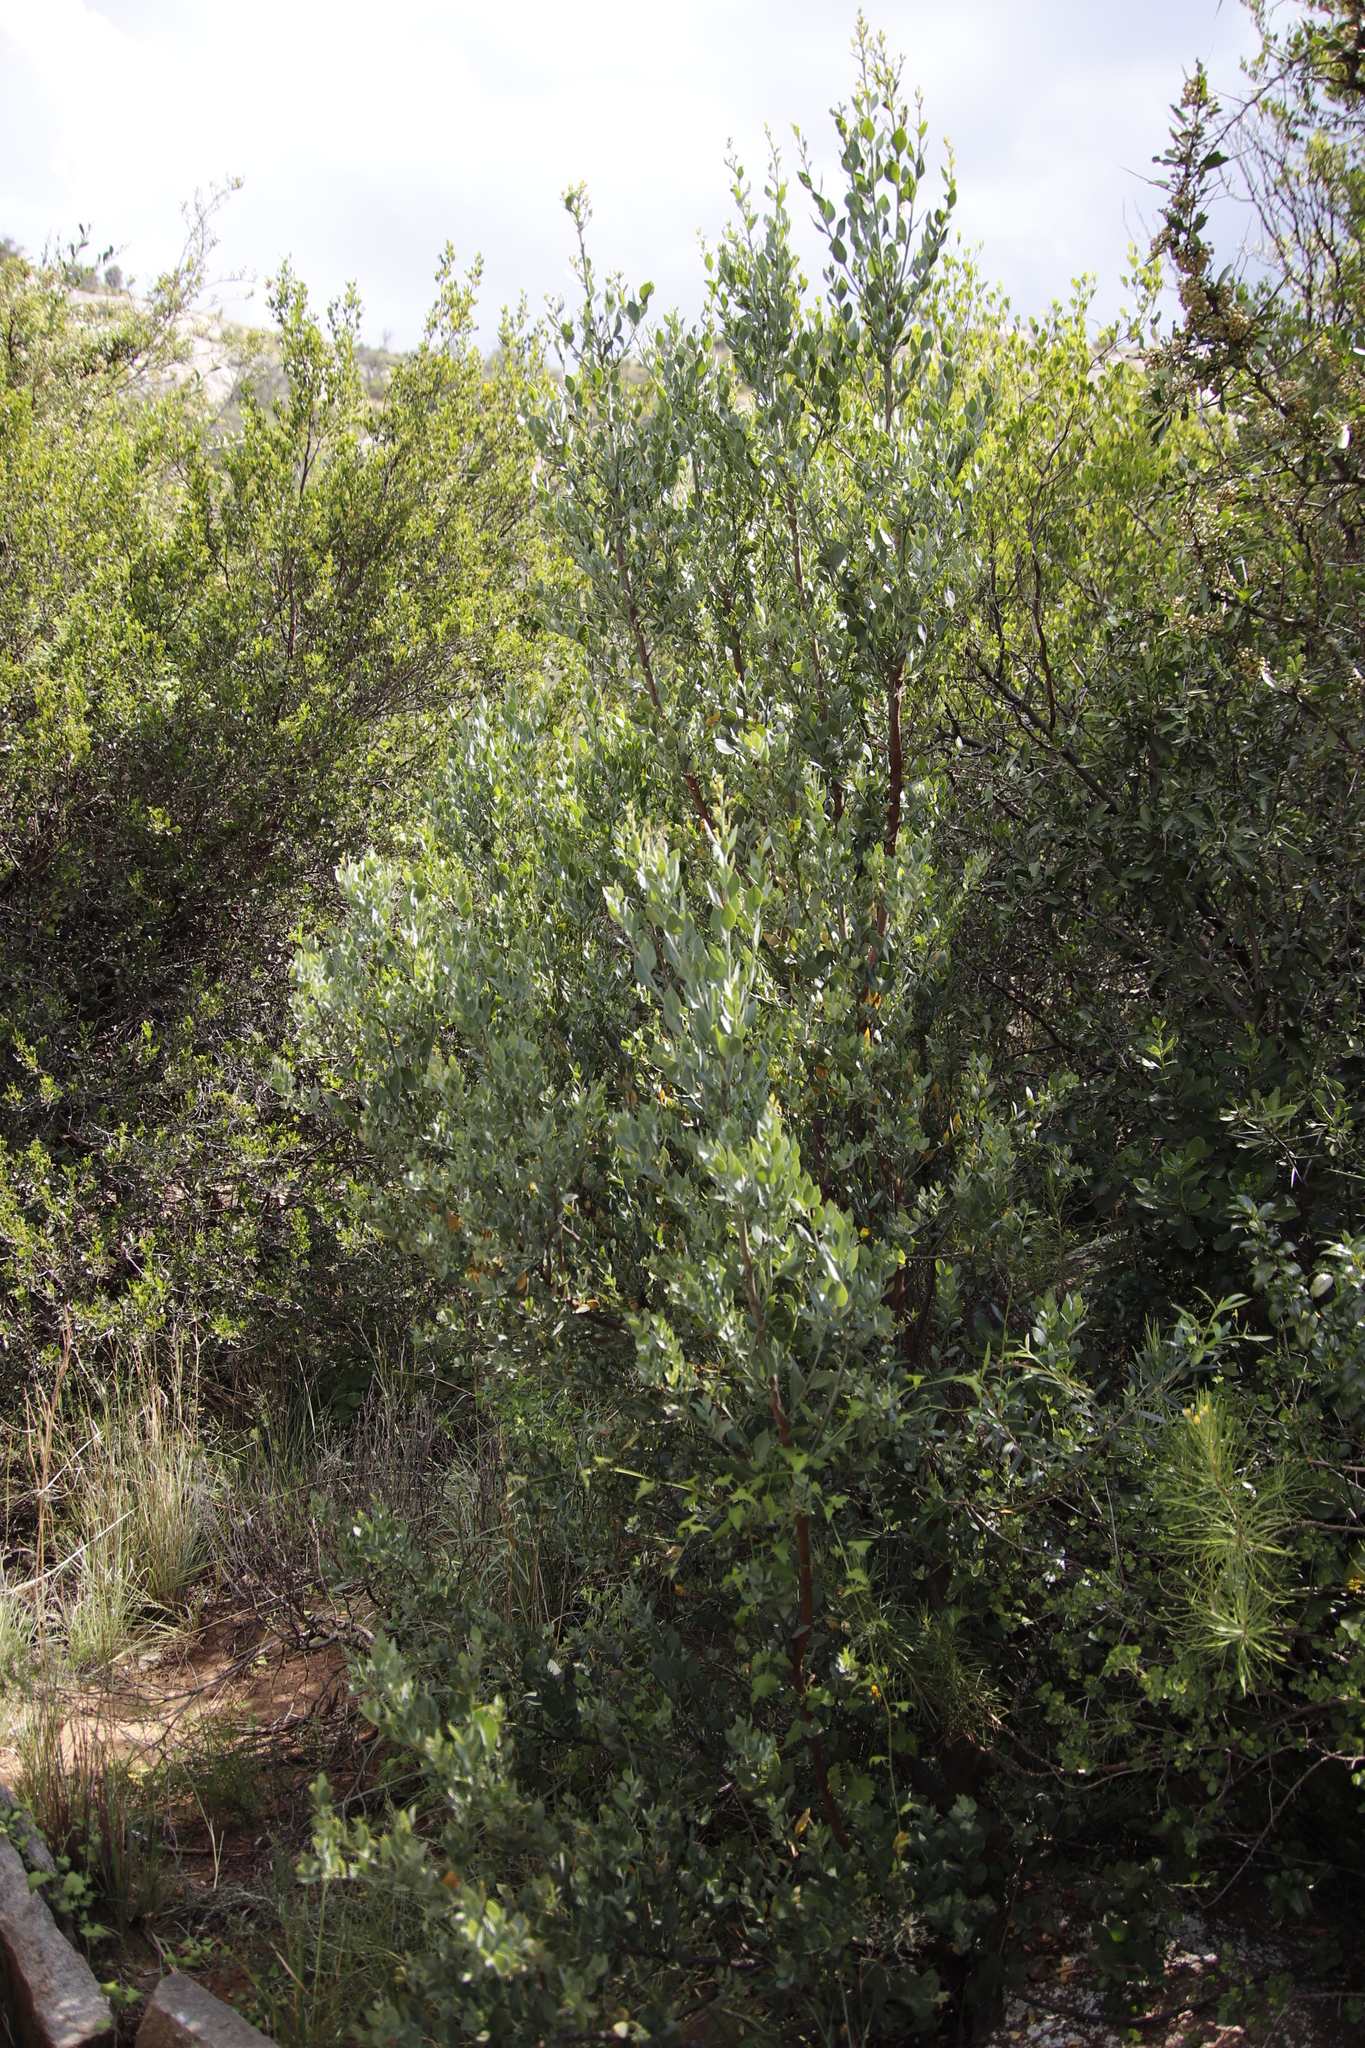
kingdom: Plantae
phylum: Tracheophyta
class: Magnoliopsida
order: Santalales
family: Santalaceae
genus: Osyris
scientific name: Osyris lanceolata
